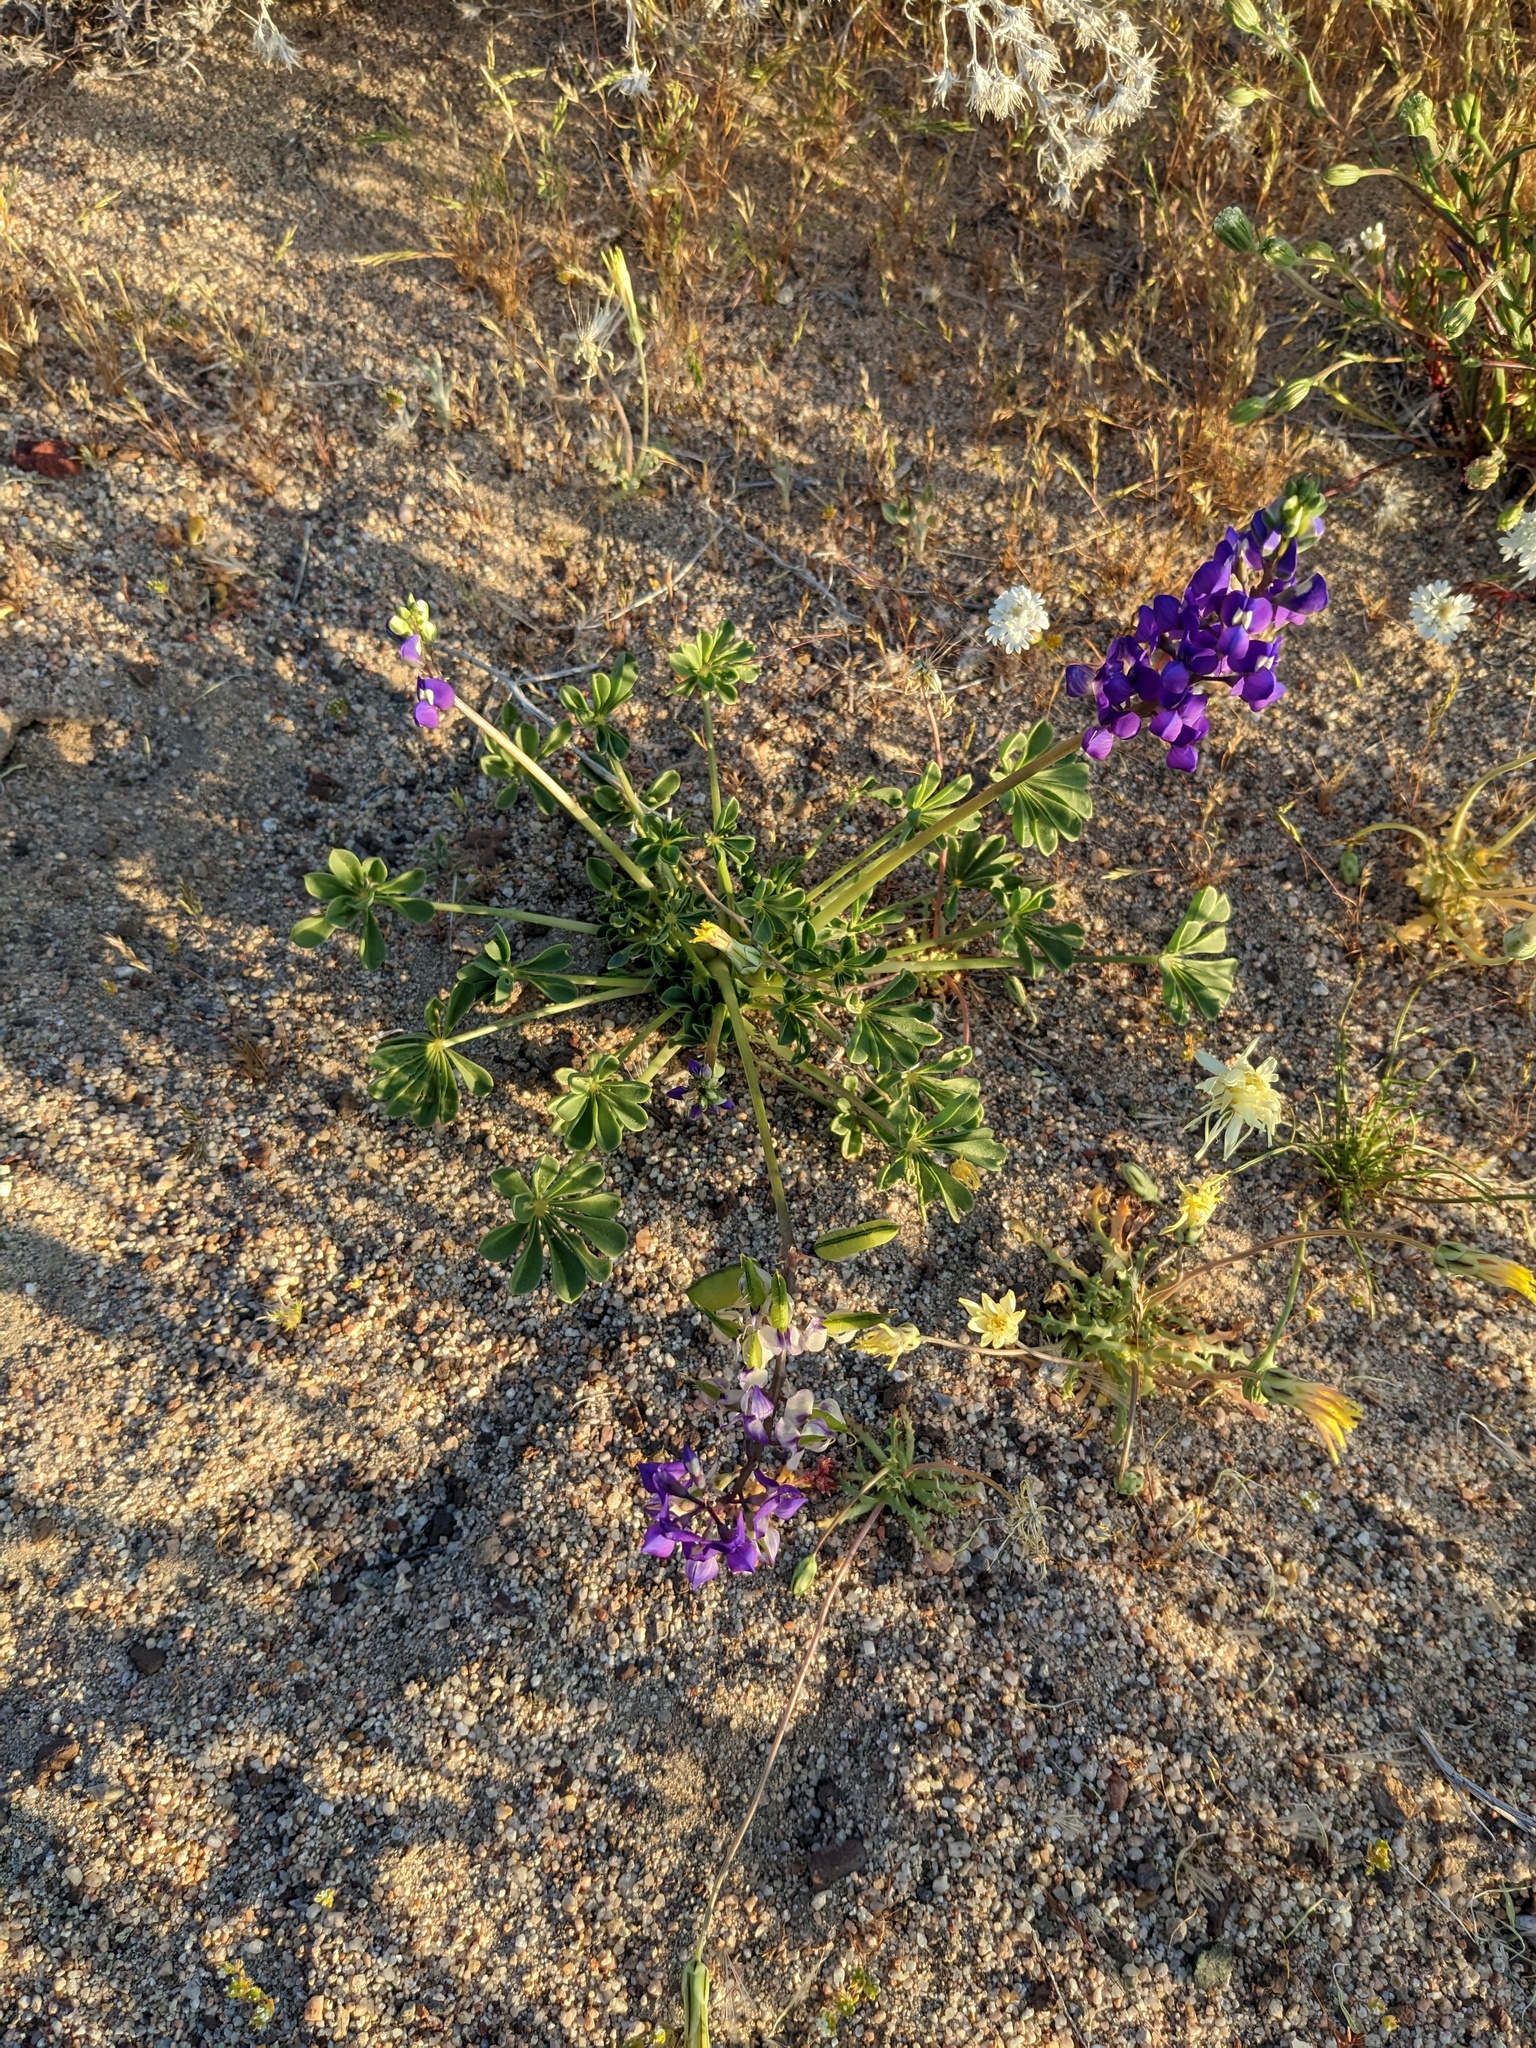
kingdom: Plantae
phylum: Tracheophyta
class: Magnoliopsida
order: Fabales
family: Fabaceae
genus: Lupinus
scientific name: Lupinus
